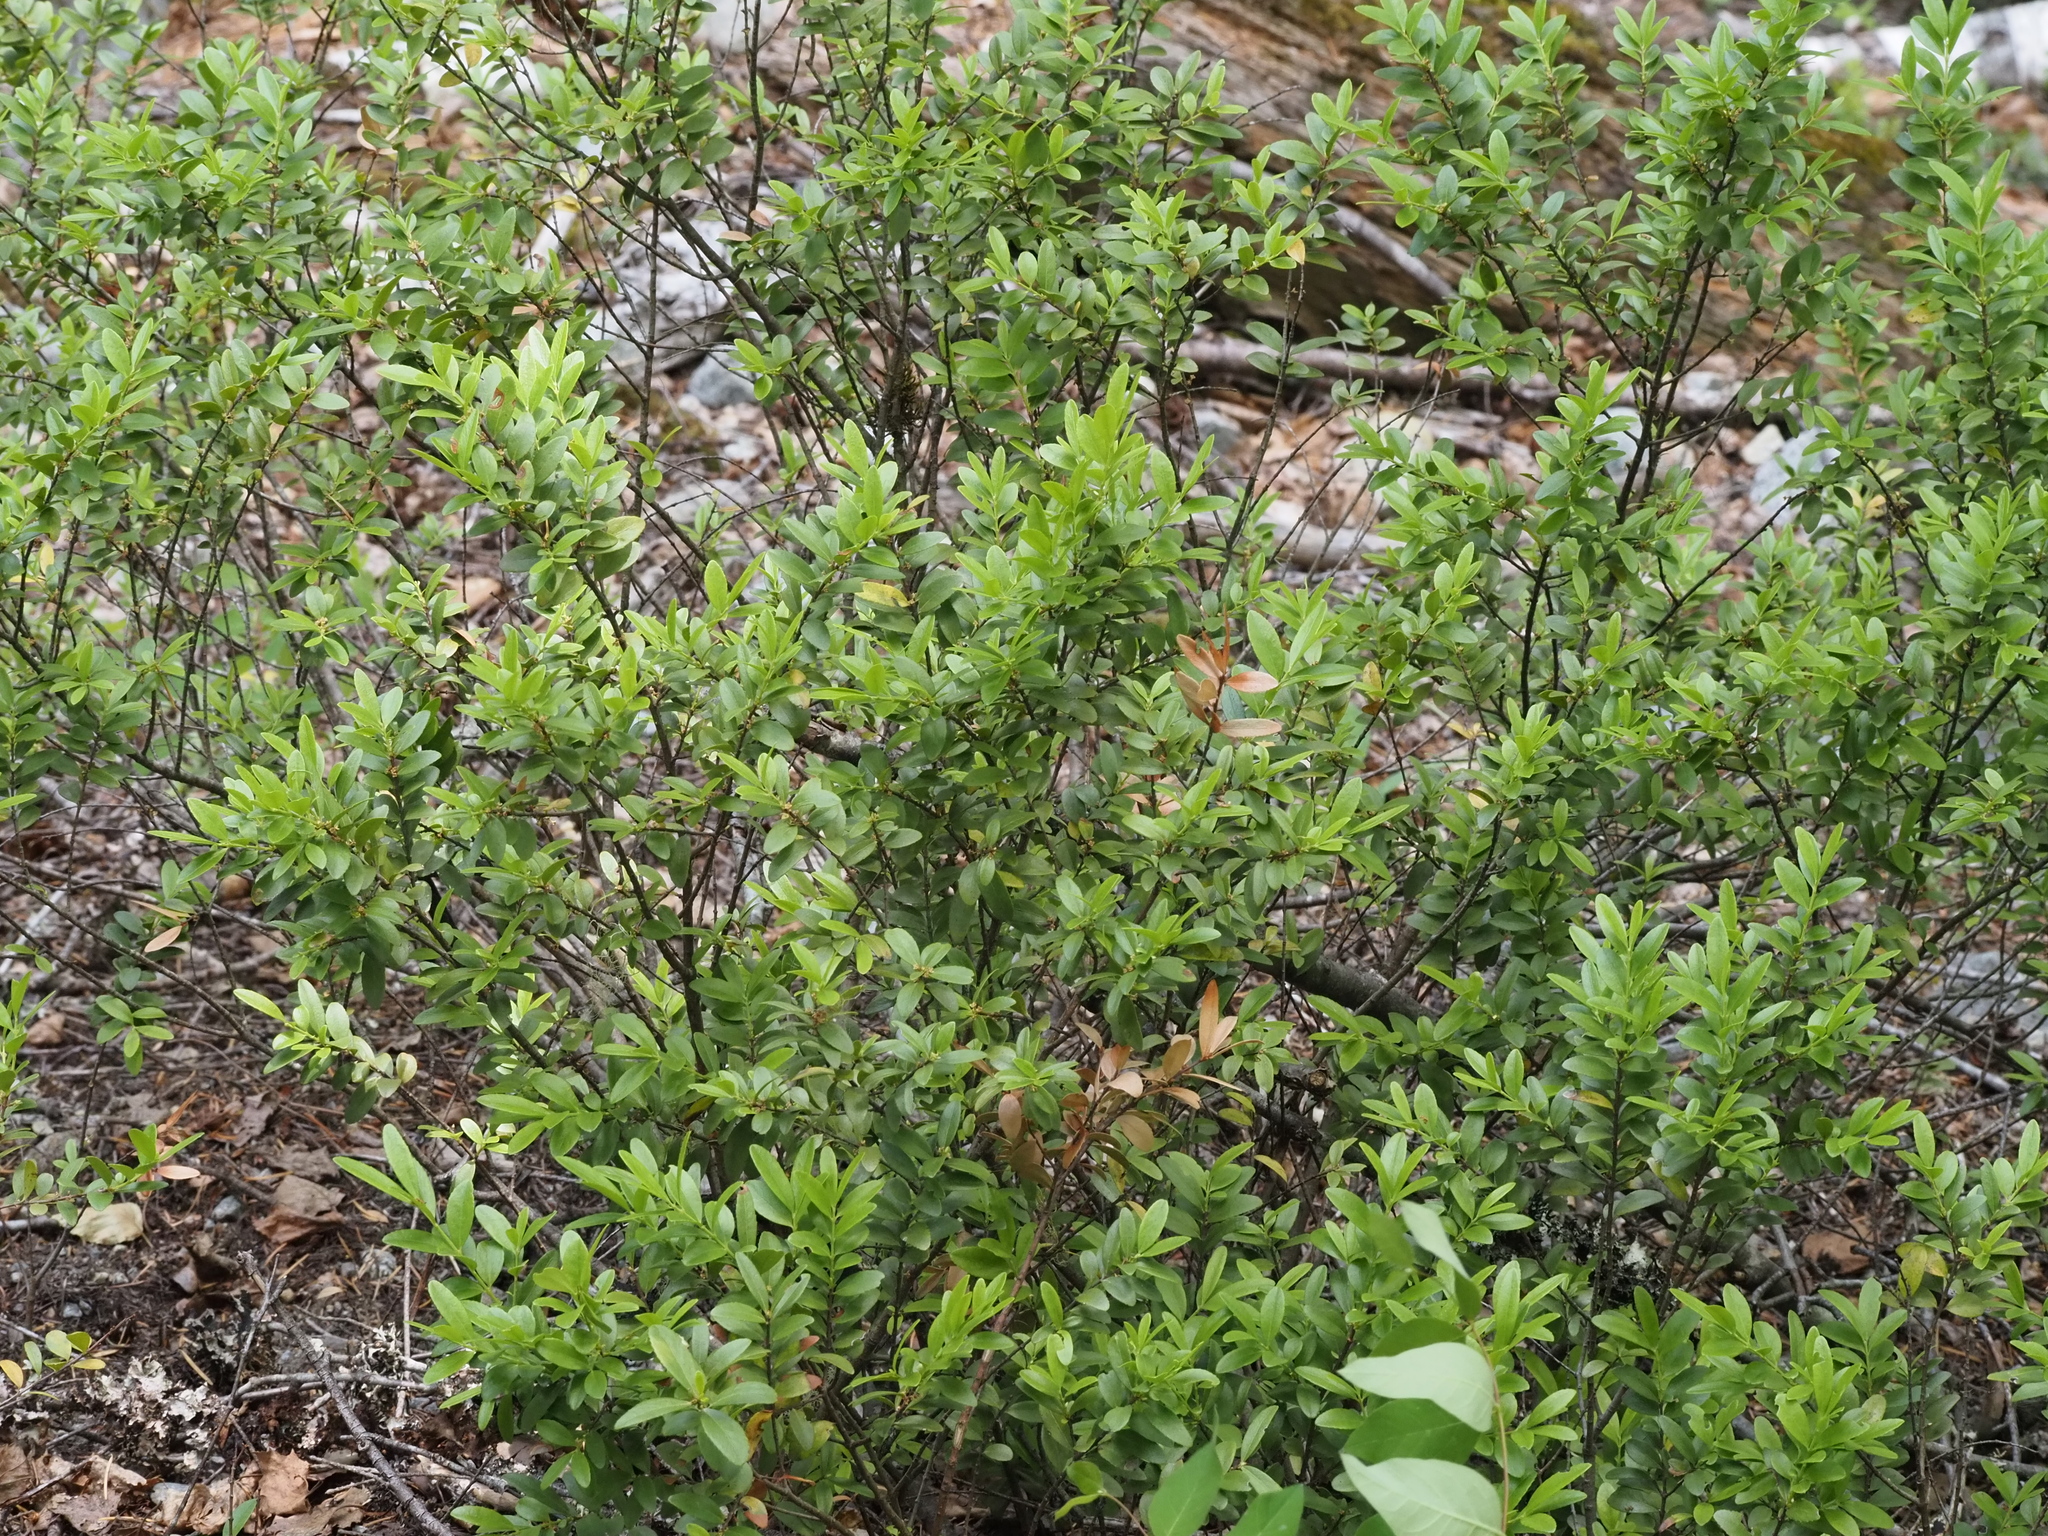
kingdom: Plantae
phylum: Tracheophyta
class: Magnoliopsida
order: Celastrales
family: Celastraceae
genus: Paxistima
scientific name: Paxistima myrsinites
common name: Mountain-lover
